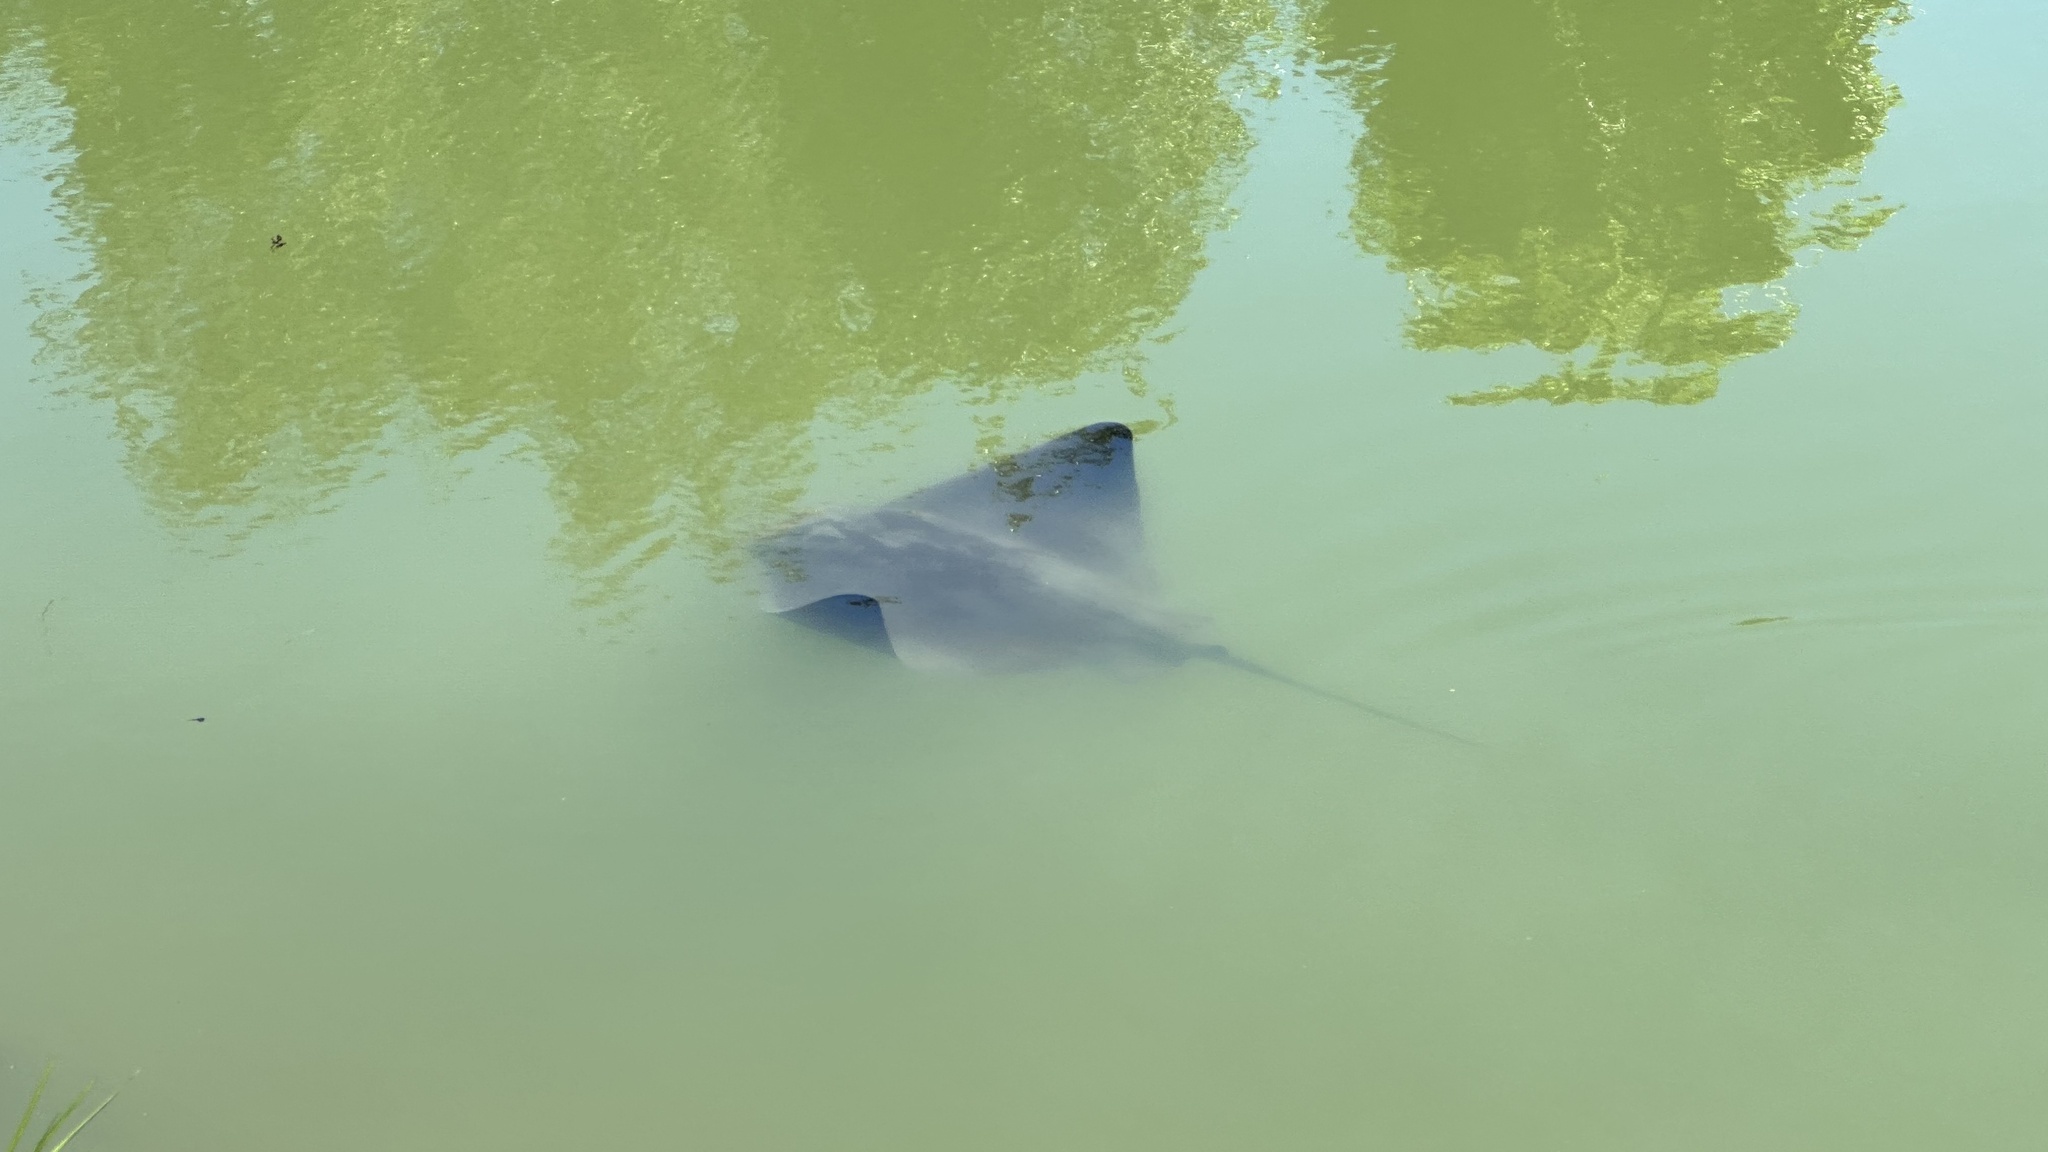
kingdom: Animalia
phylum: Chordata
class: Elasmobranchii
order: Myliobatiformes
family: Myliobatidae
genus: Myliobatis
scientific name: Myliobatis californica
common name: Bat ray
